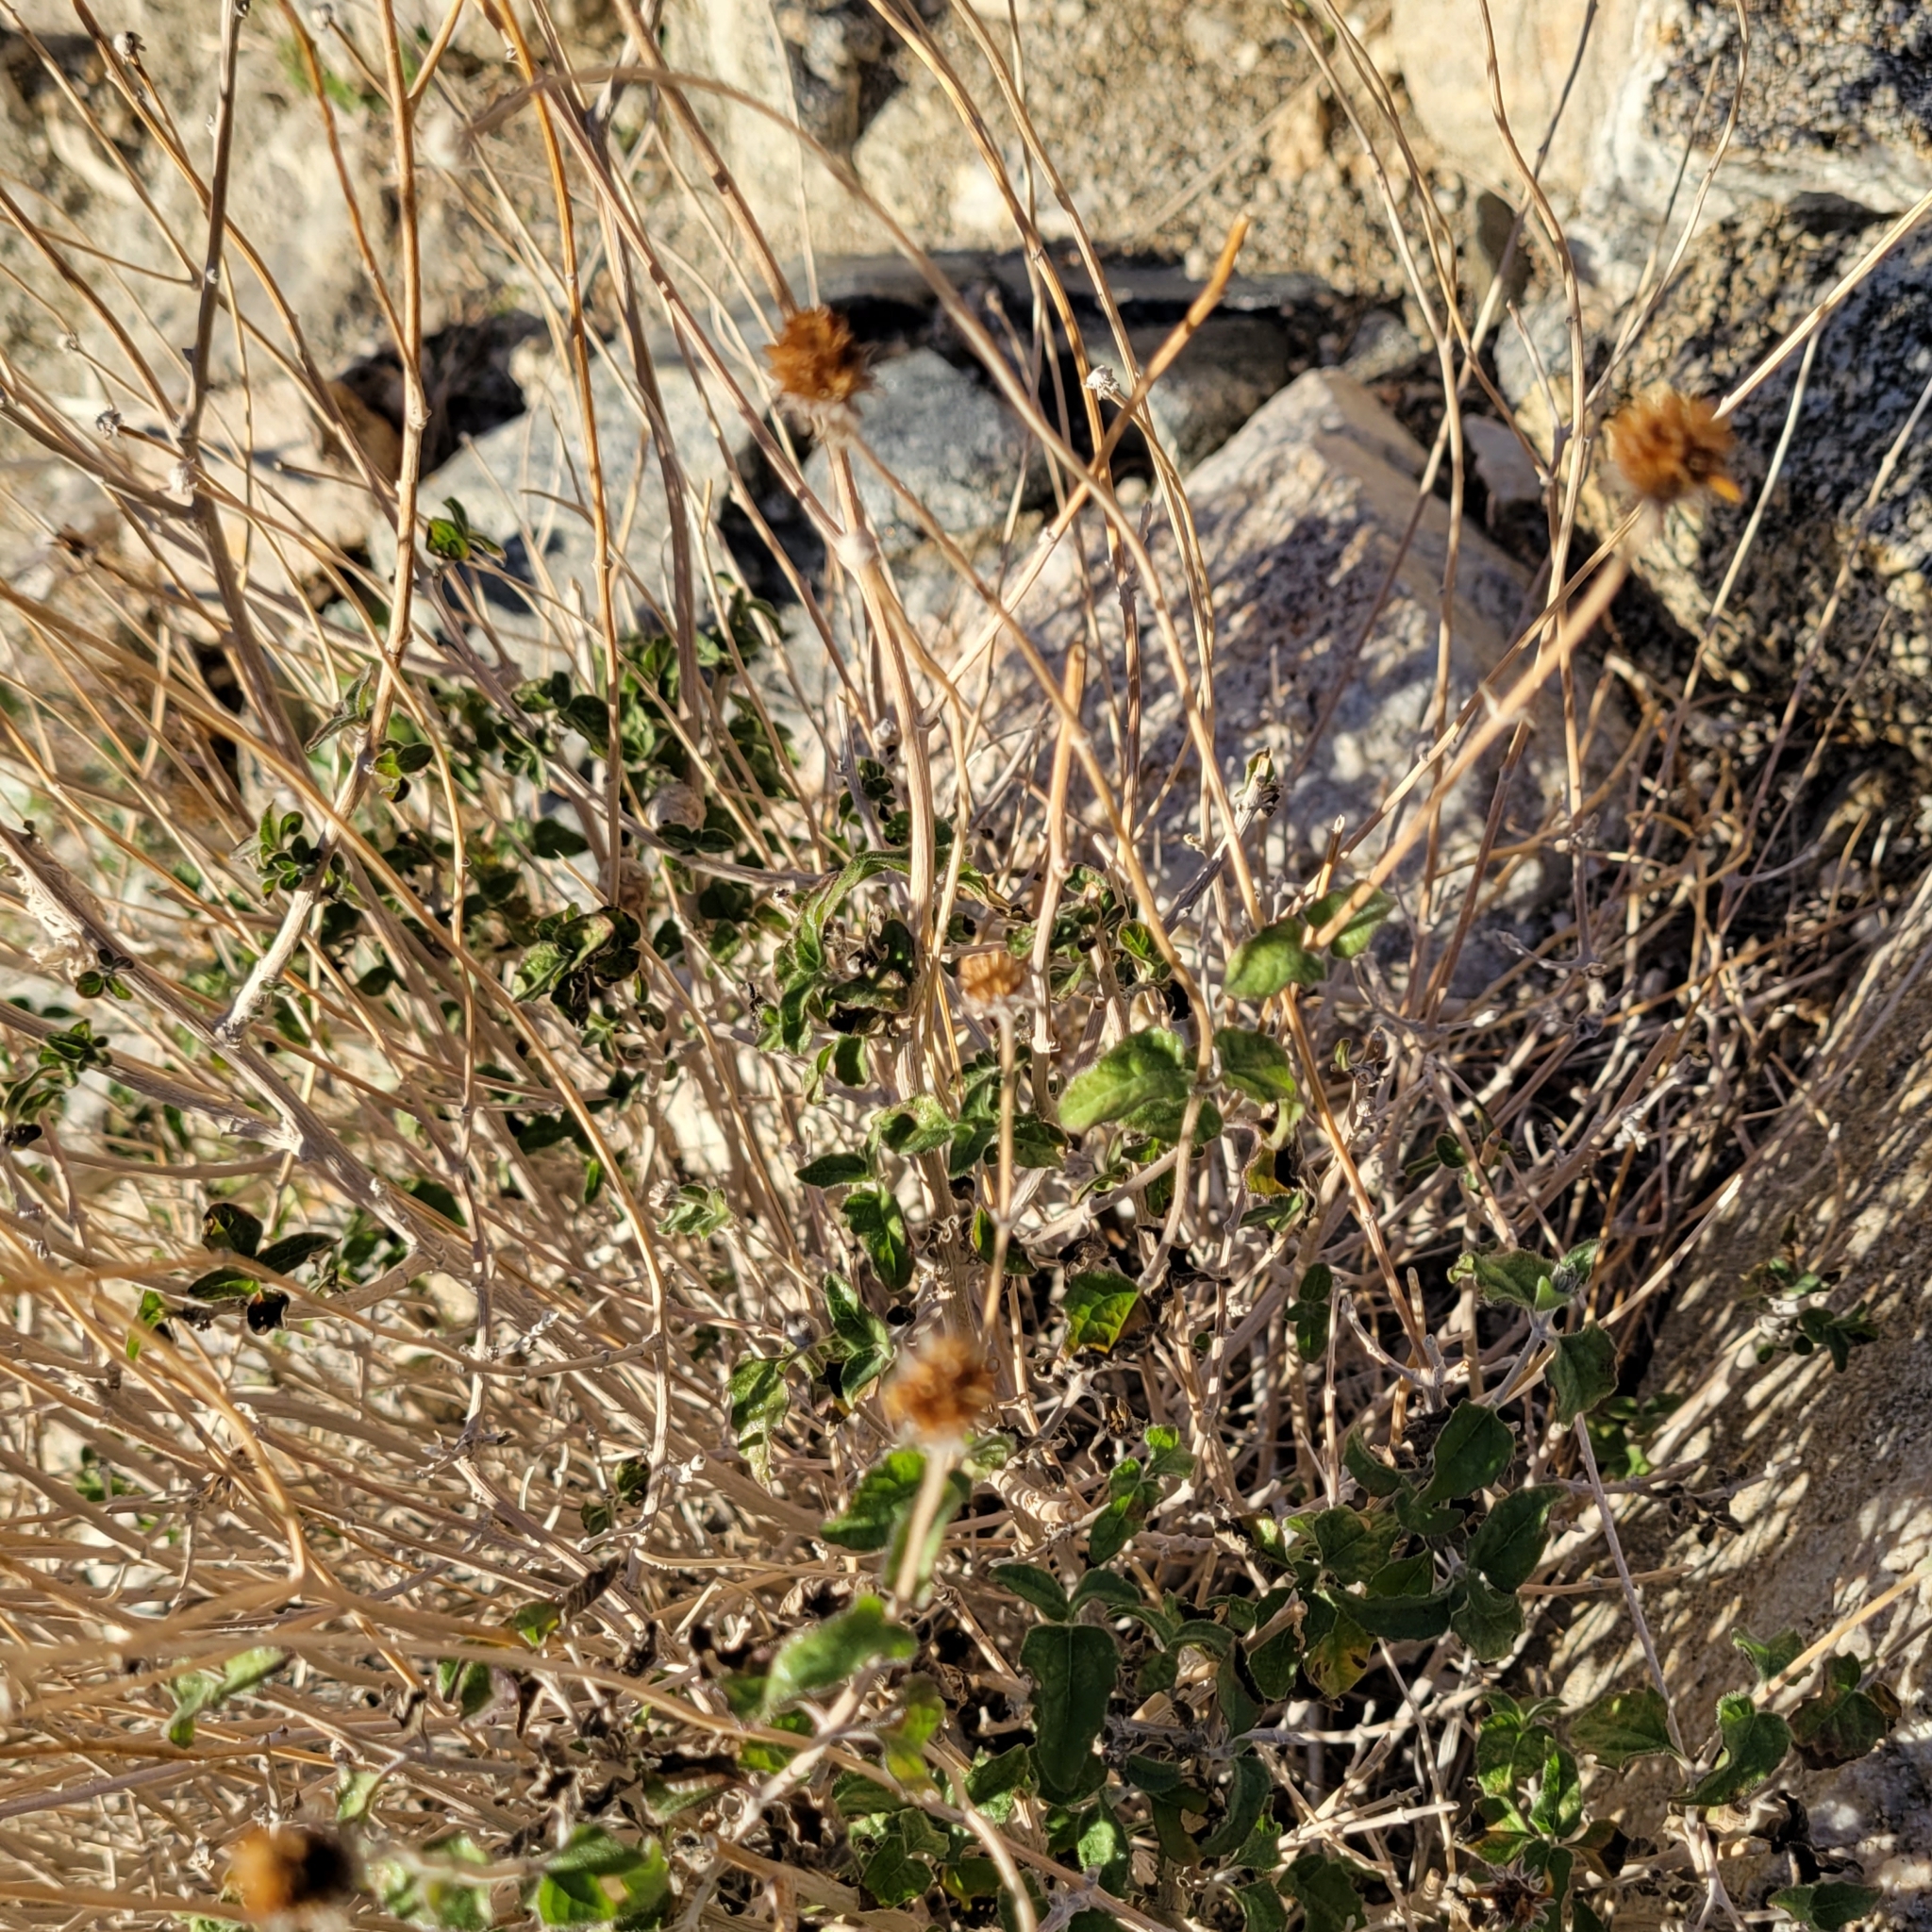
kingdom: Plantae
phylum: Tracheophyta
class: Magnoliopsida
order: Asterales
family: Asteraceae
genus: Bahiopsis
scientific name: Bahiopsis parishii
